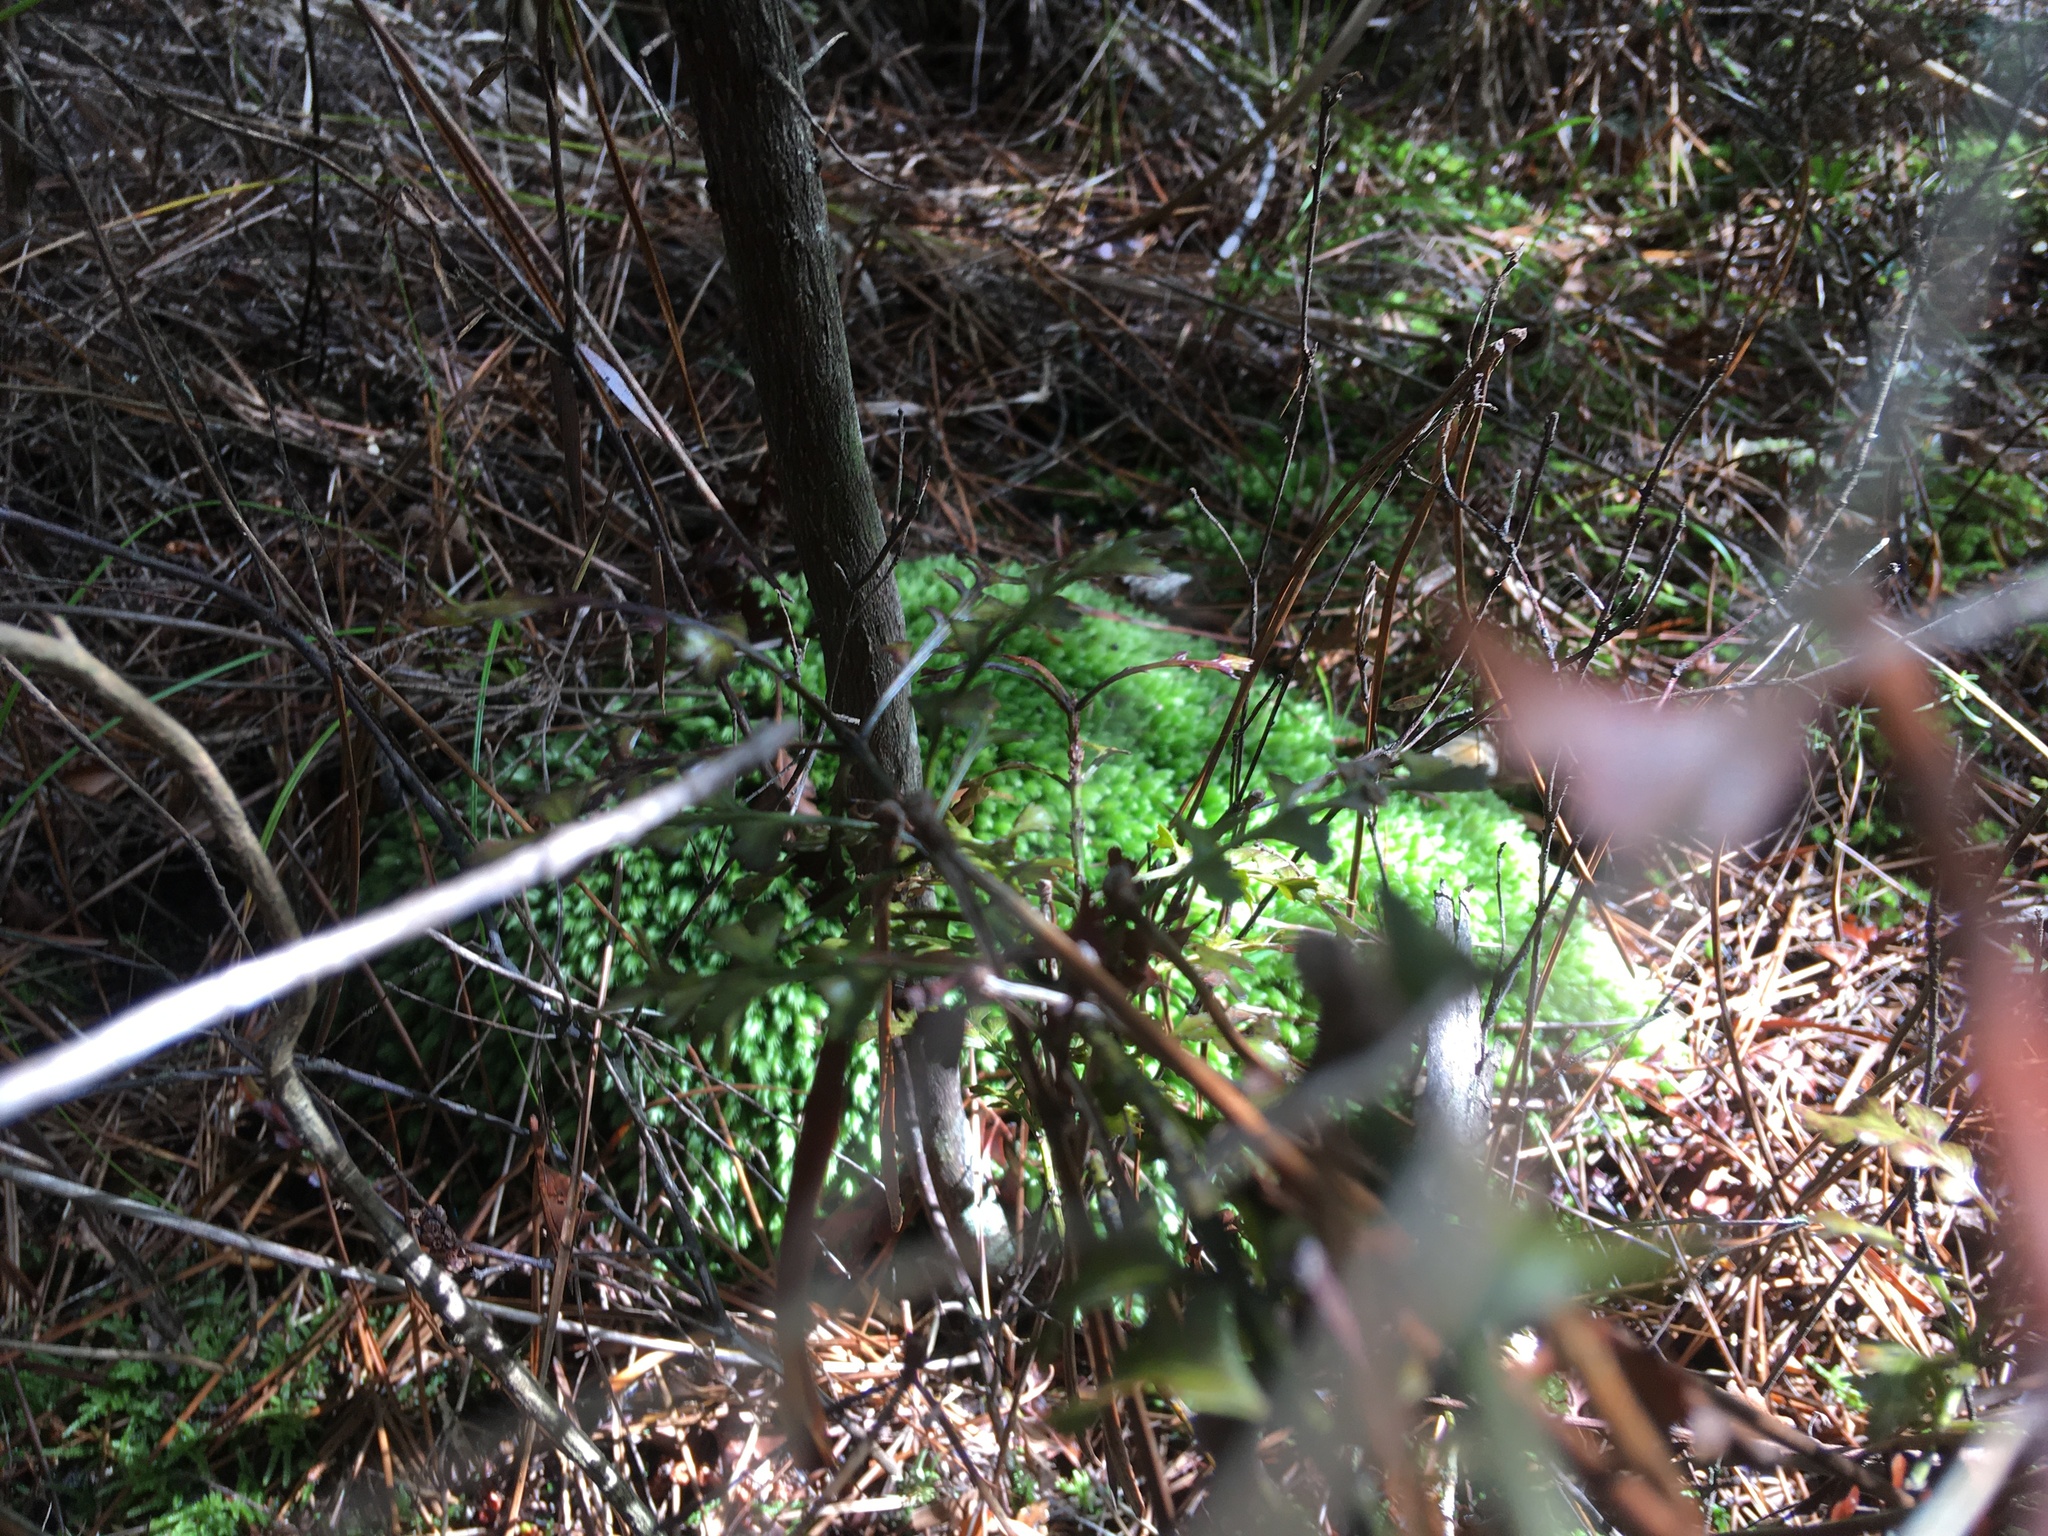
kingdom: Plantae
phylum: Bryophyta
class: Bryopsida
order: Dicranales
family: Leucobryaceae
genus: Leucobryum
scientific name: Leucobryum javense
